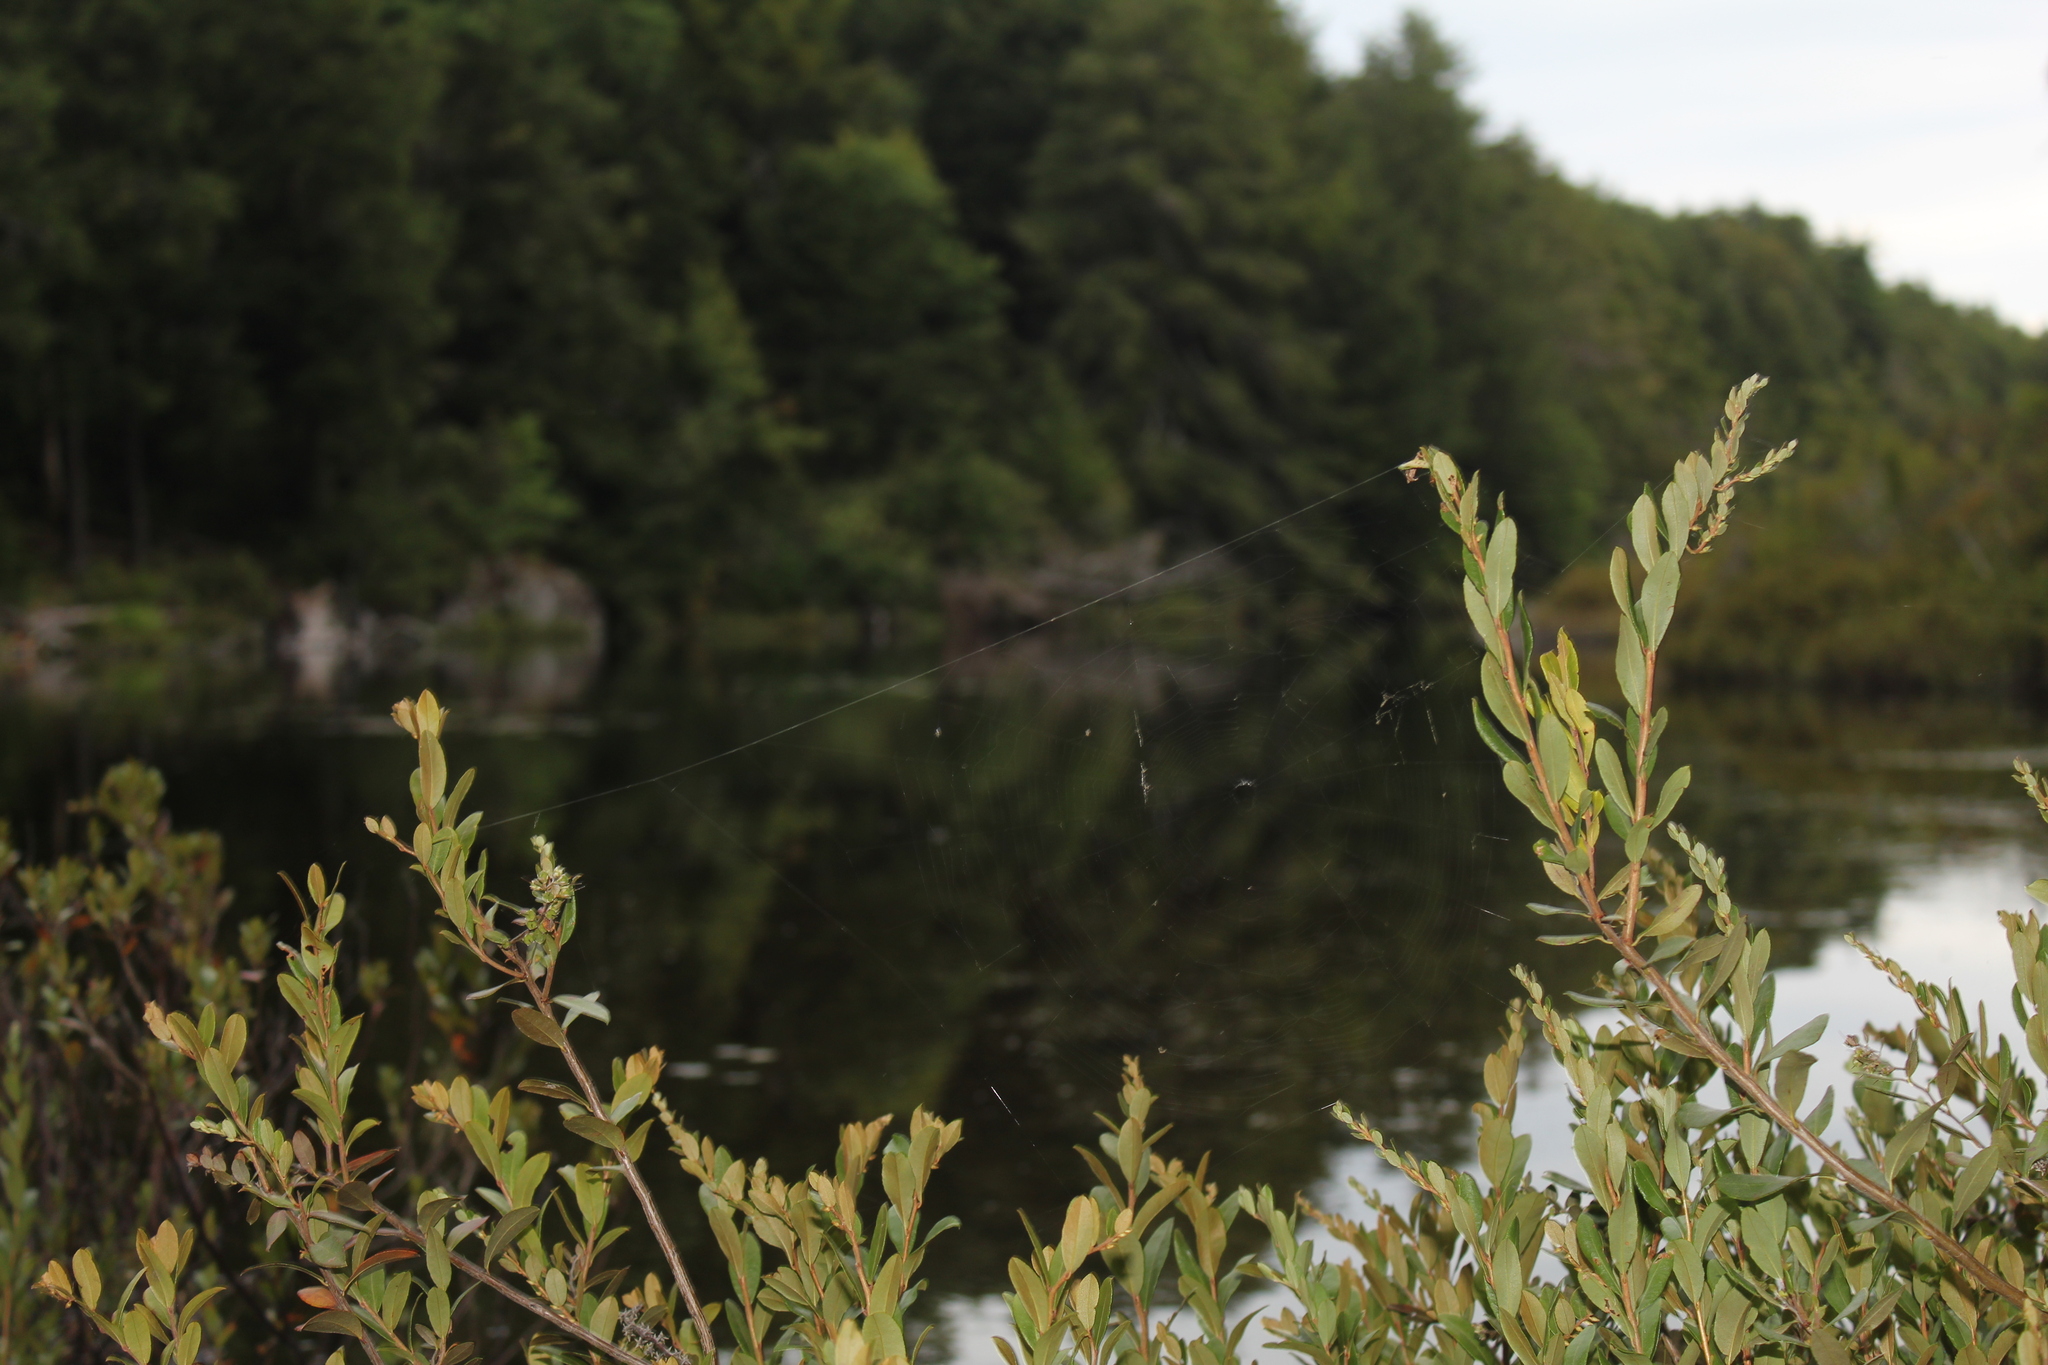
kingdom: Plantae
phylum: Tracheophyta
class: Magnoliopsida
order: Ericales
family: Ericaceae
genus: Chamaedaphne
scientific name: Chamaedaphne calyculata
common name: Leatherleaf
